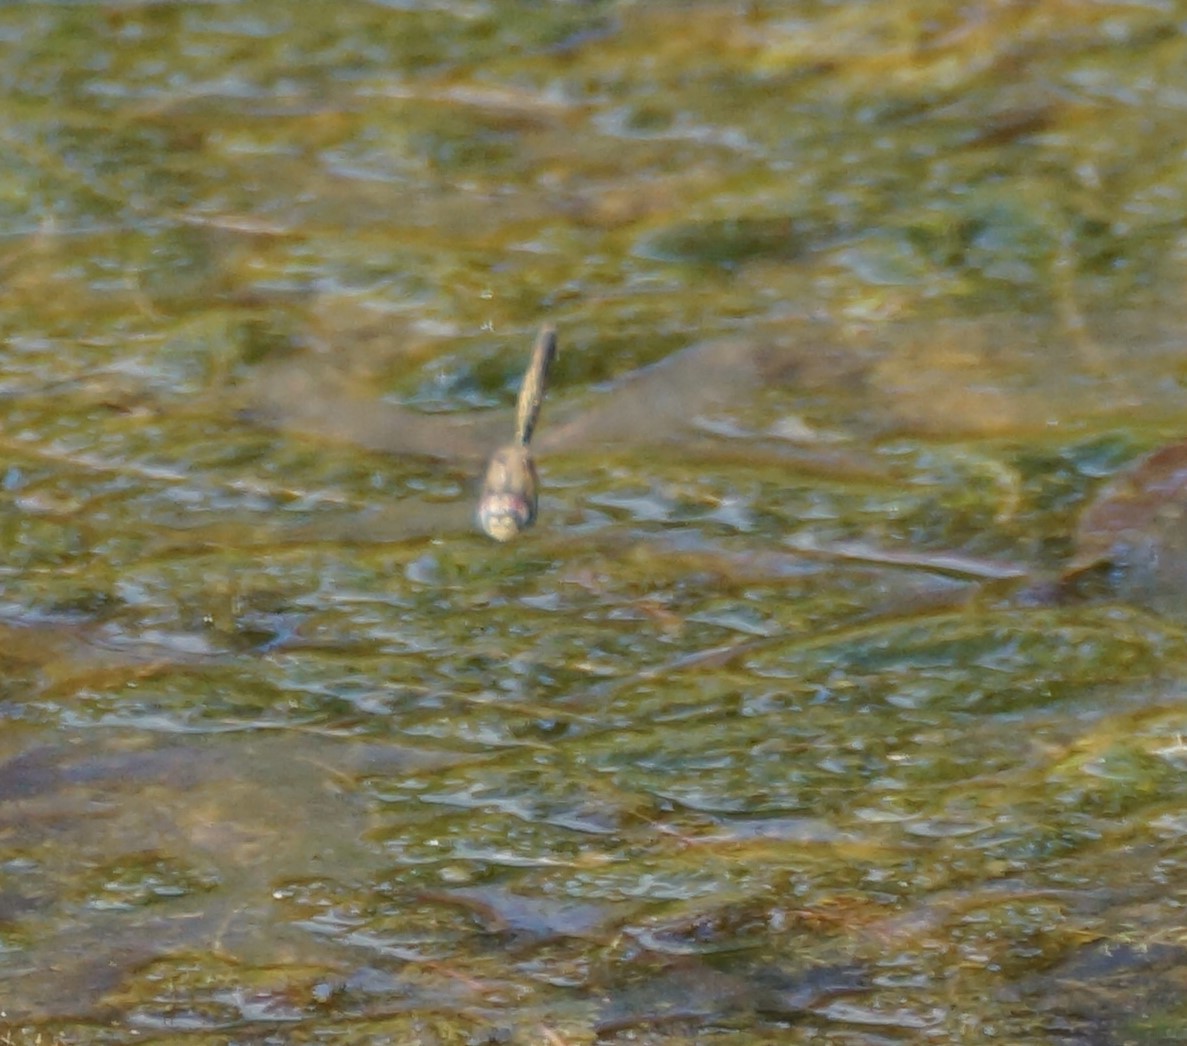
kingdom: Animalia
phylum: Arthropoda
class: Insecta
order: Odonata
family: Corduliidae
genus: Hemicordulia
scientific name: Hemicordulia tau
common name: Tau emerald
